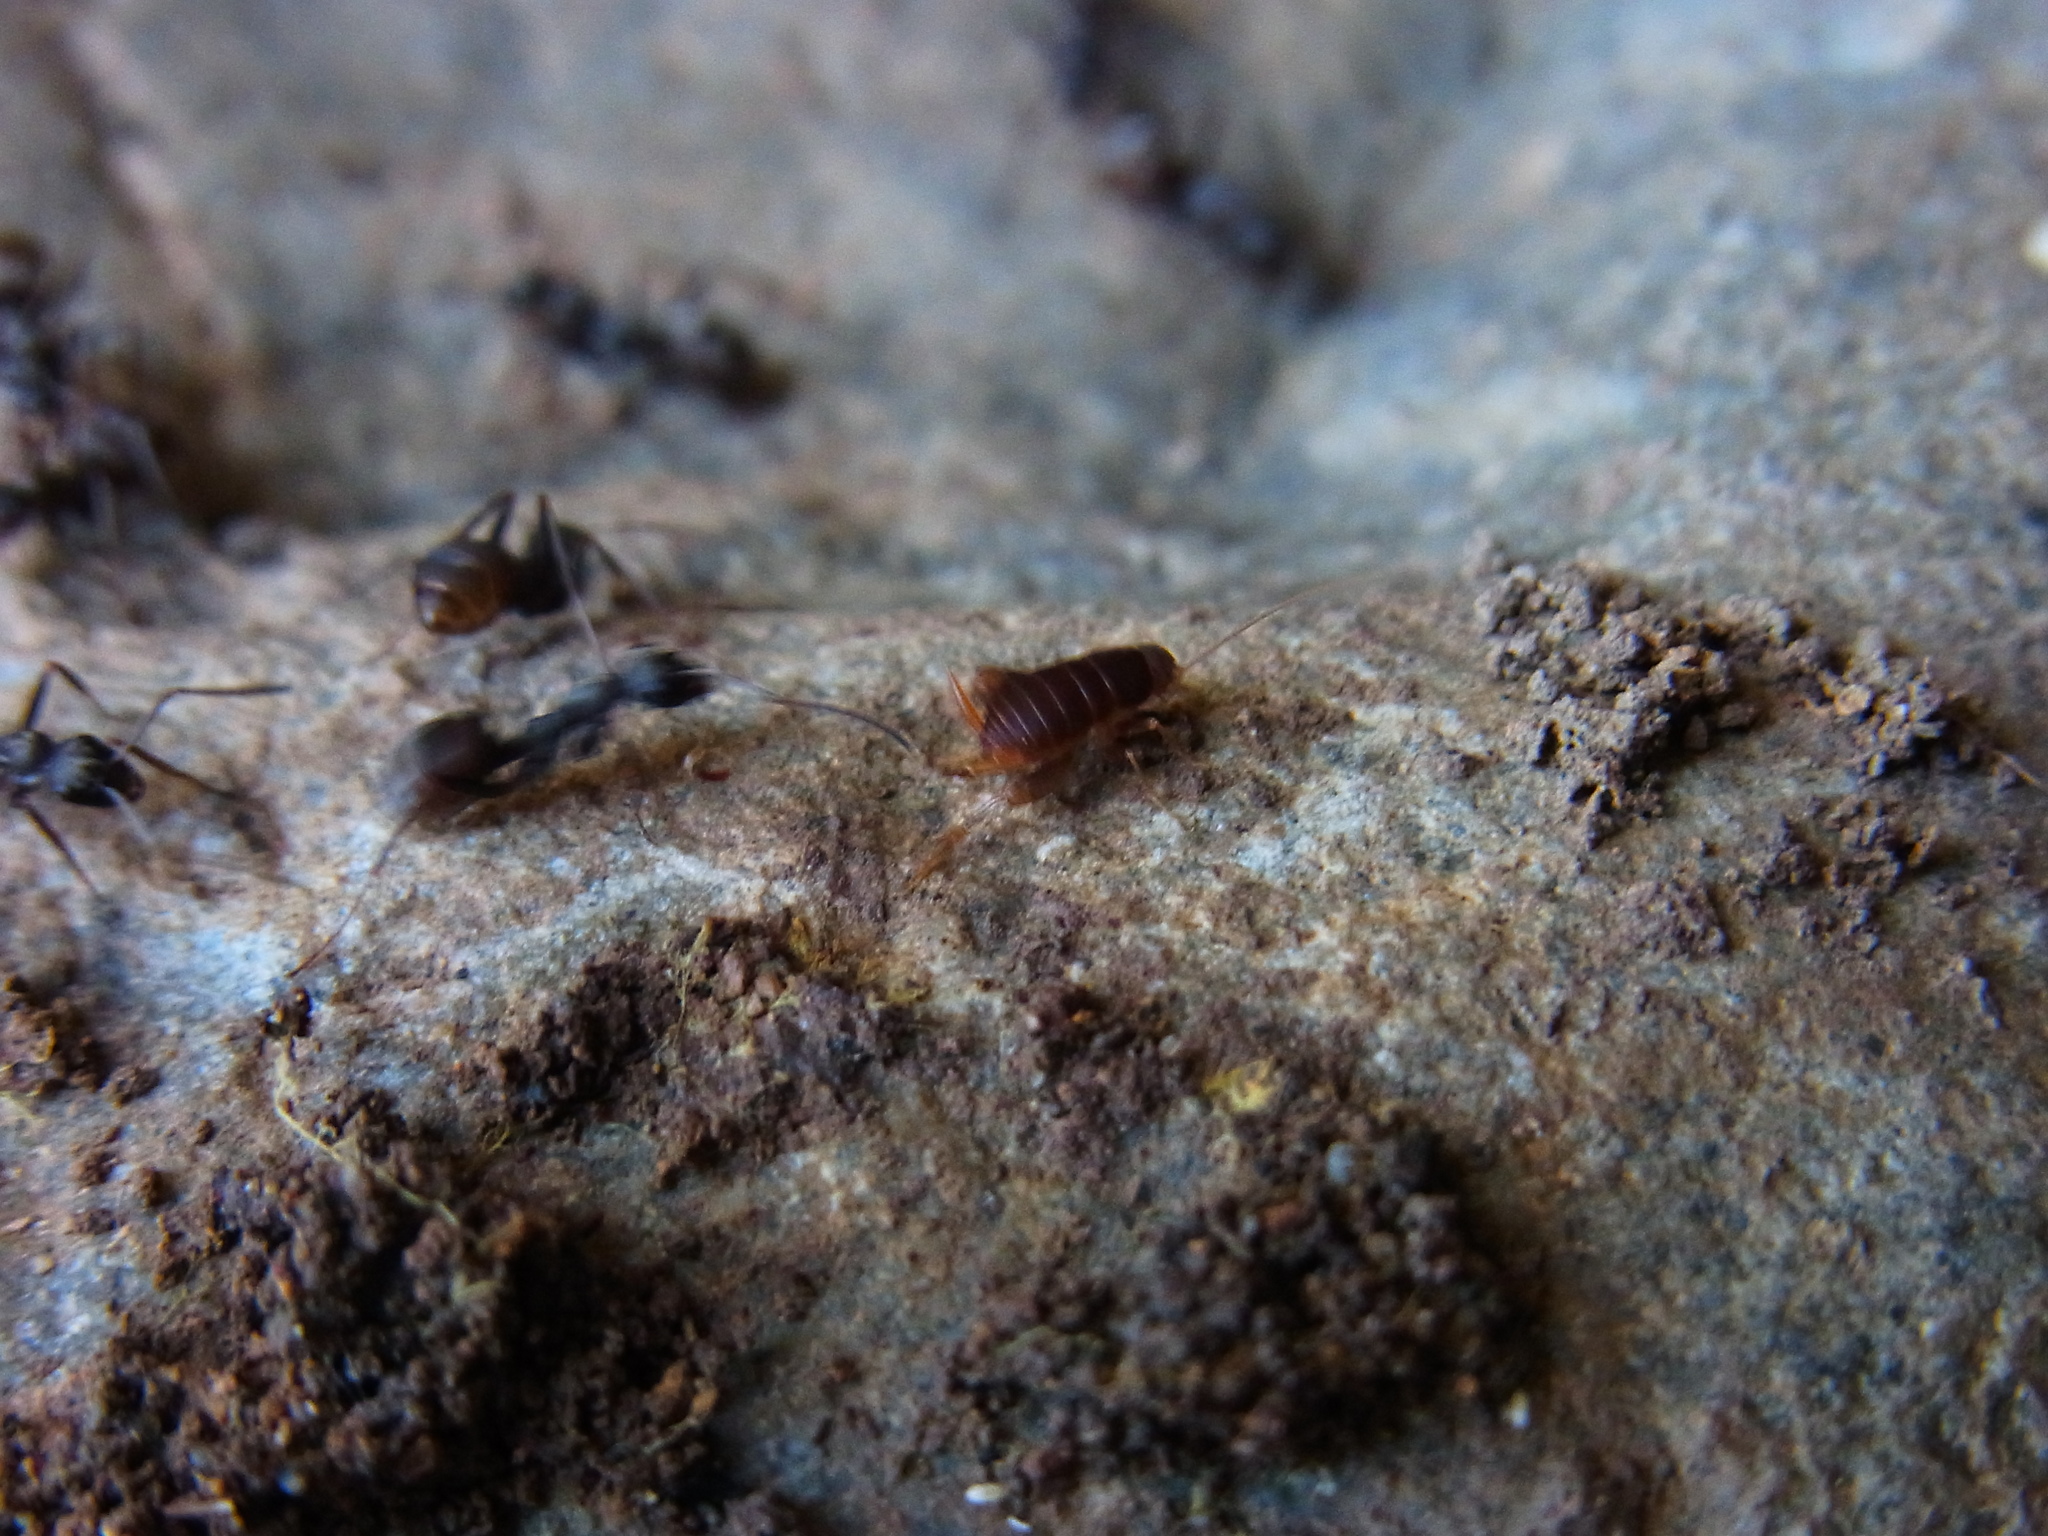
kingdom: Animalia
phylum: Arthropoda
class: Insecta
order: Orthoptera
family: Myrmecophilidae
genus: Myrmecophilus
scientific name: Myrmecophilus kubotai
